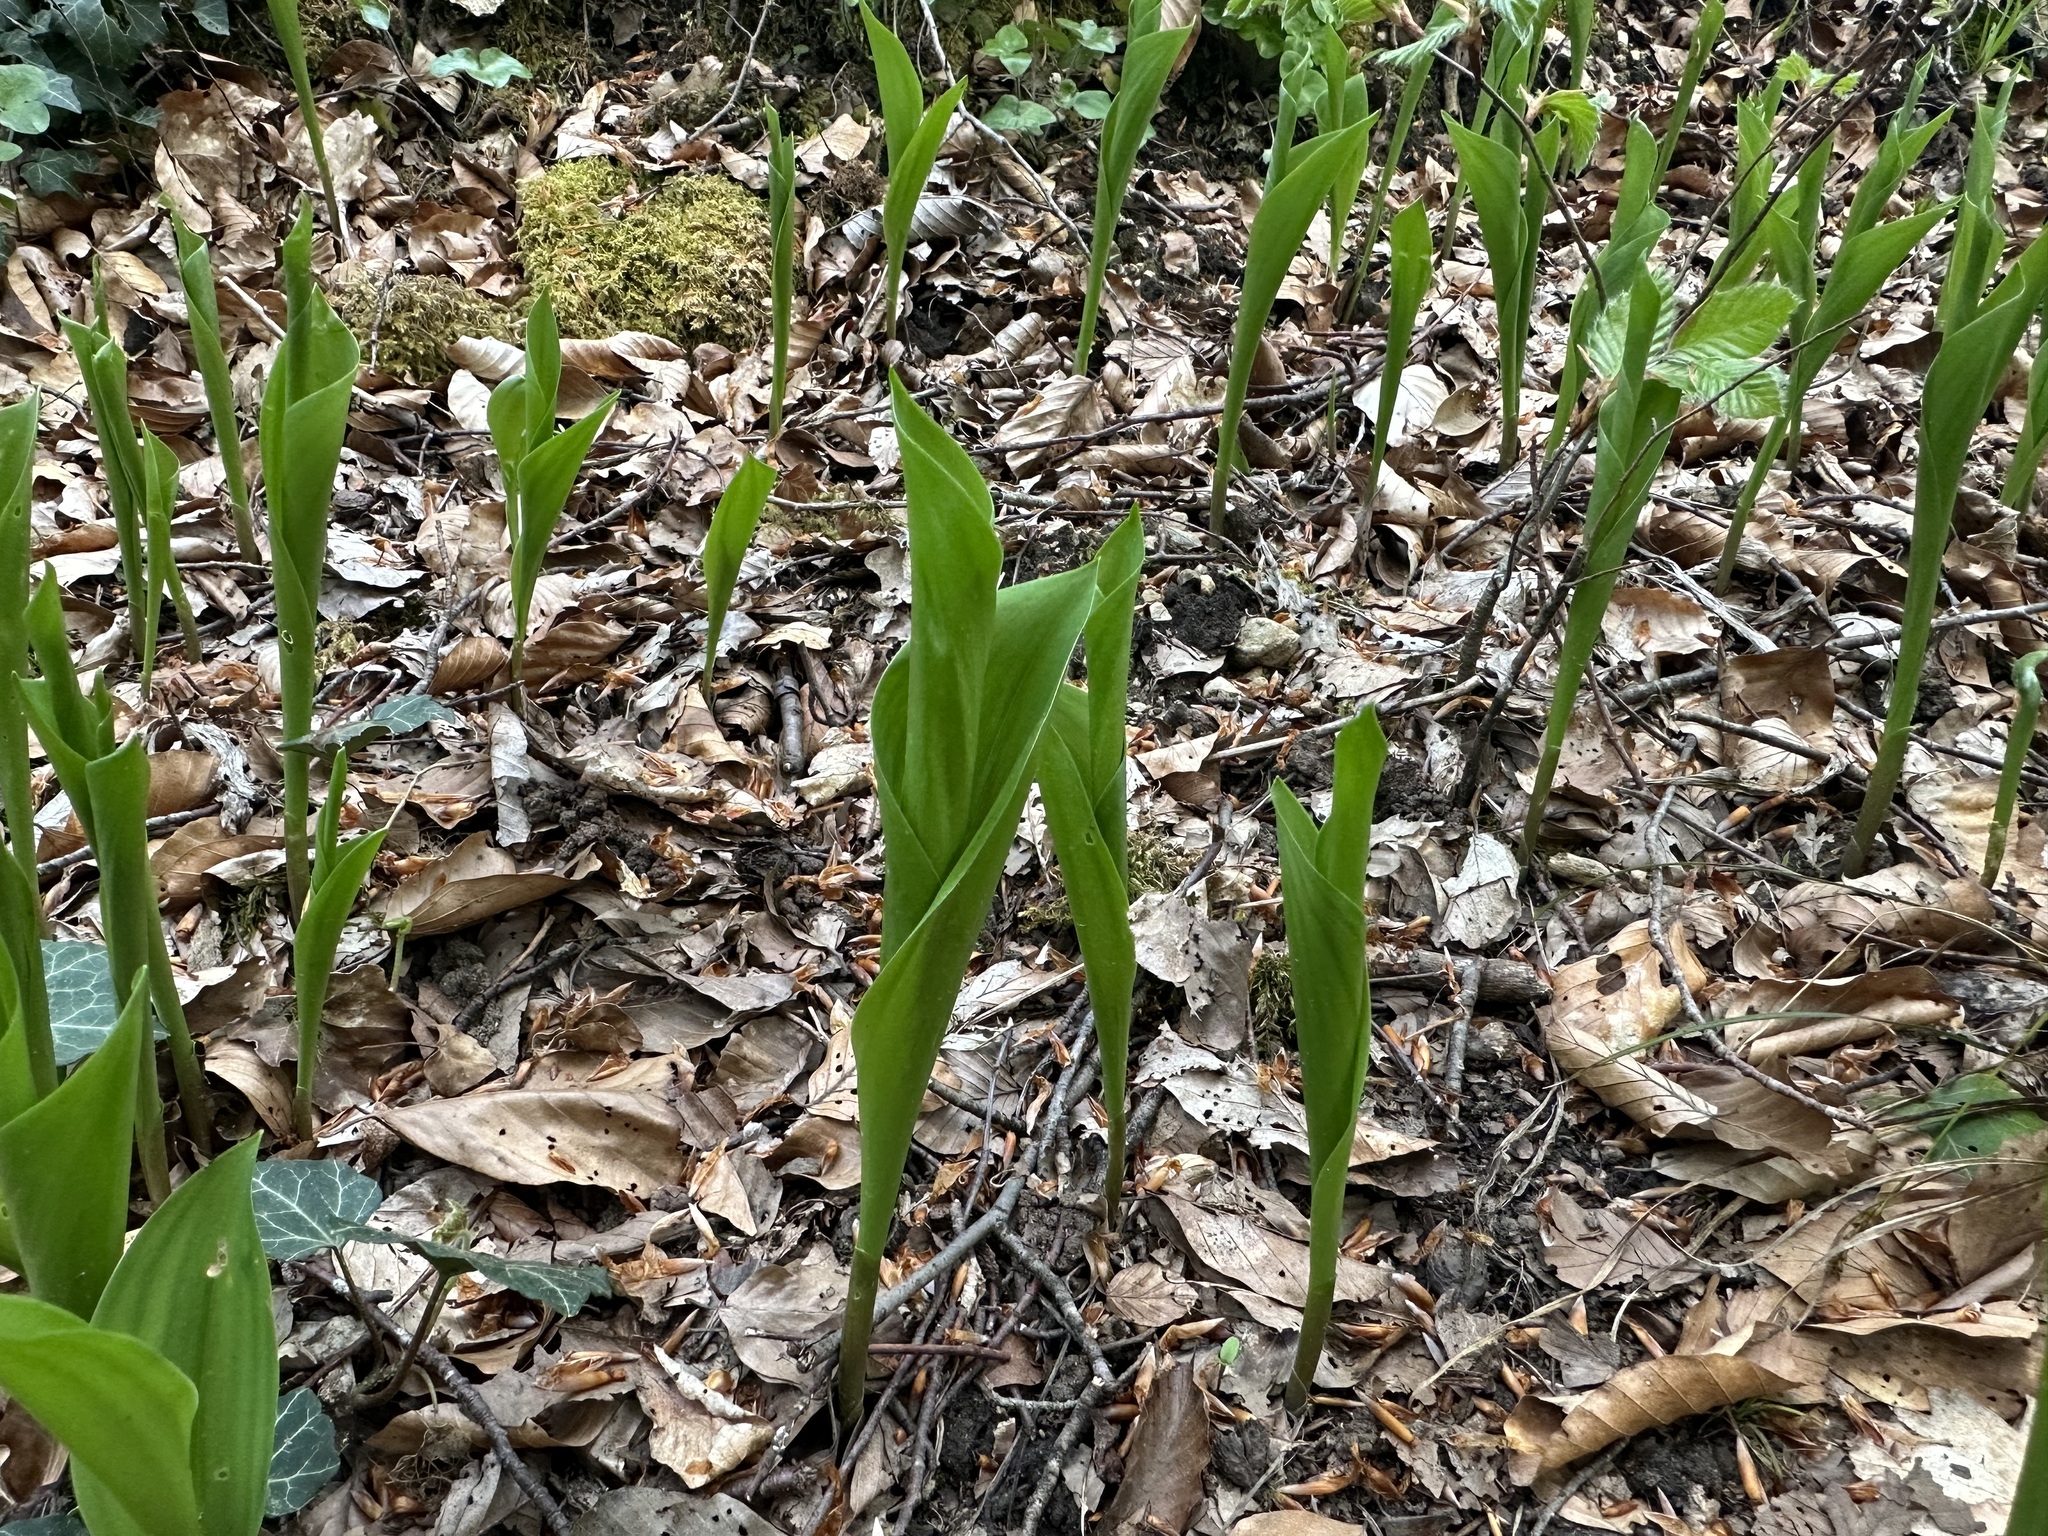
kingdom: Plantae
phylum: Tracheophyta
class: Liliopsida
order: Asparagales
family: Asparagaceae
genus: Convallaria
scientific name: Convallaria majalis
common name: Lily-of-the-valley
